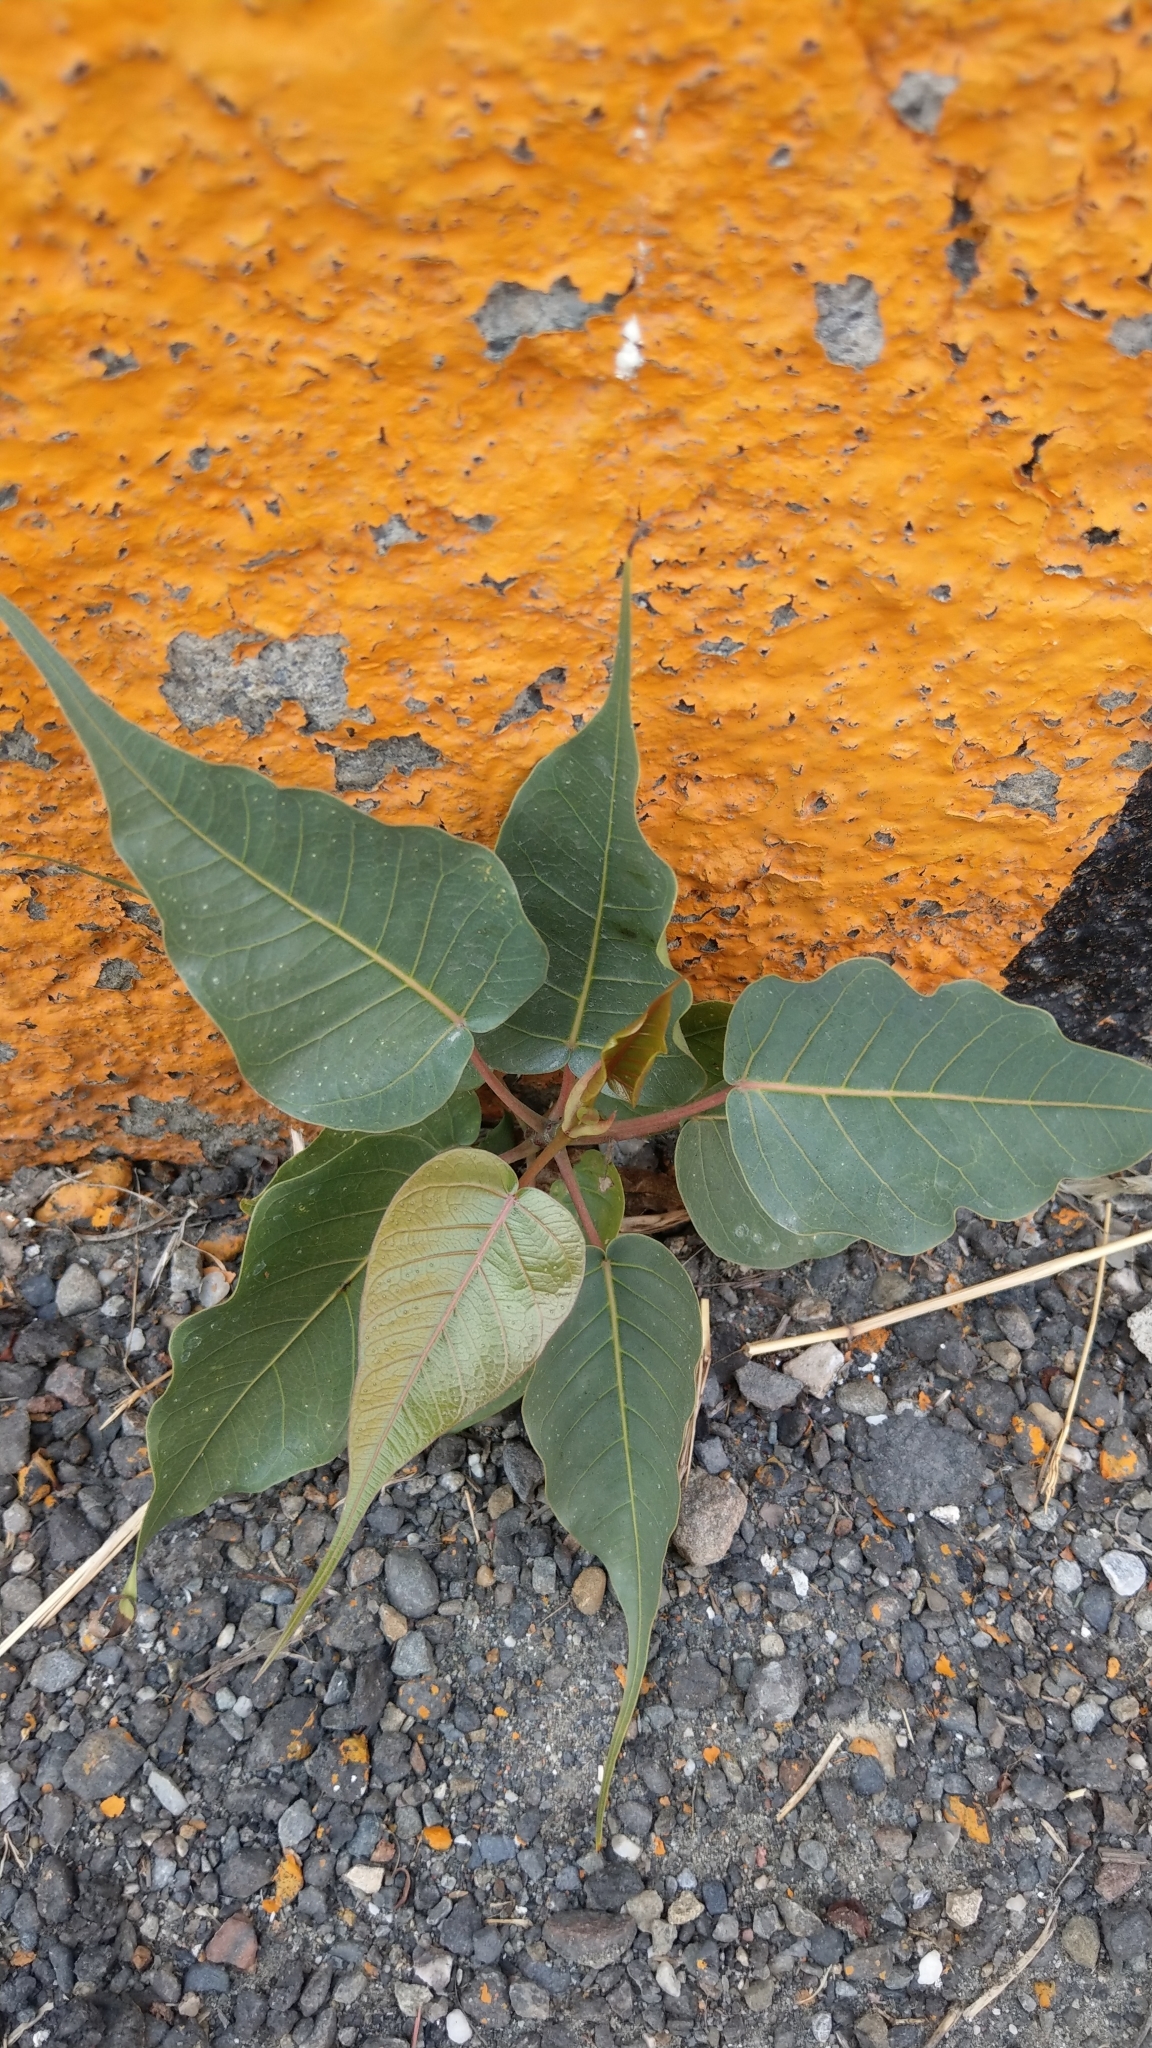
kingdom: Plantae
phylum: Tracheophyta
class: Magnoliopsida
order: Rosales
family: Moraceae
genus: Ficus
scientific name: Ficus religiosa
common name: Bodhi tree
